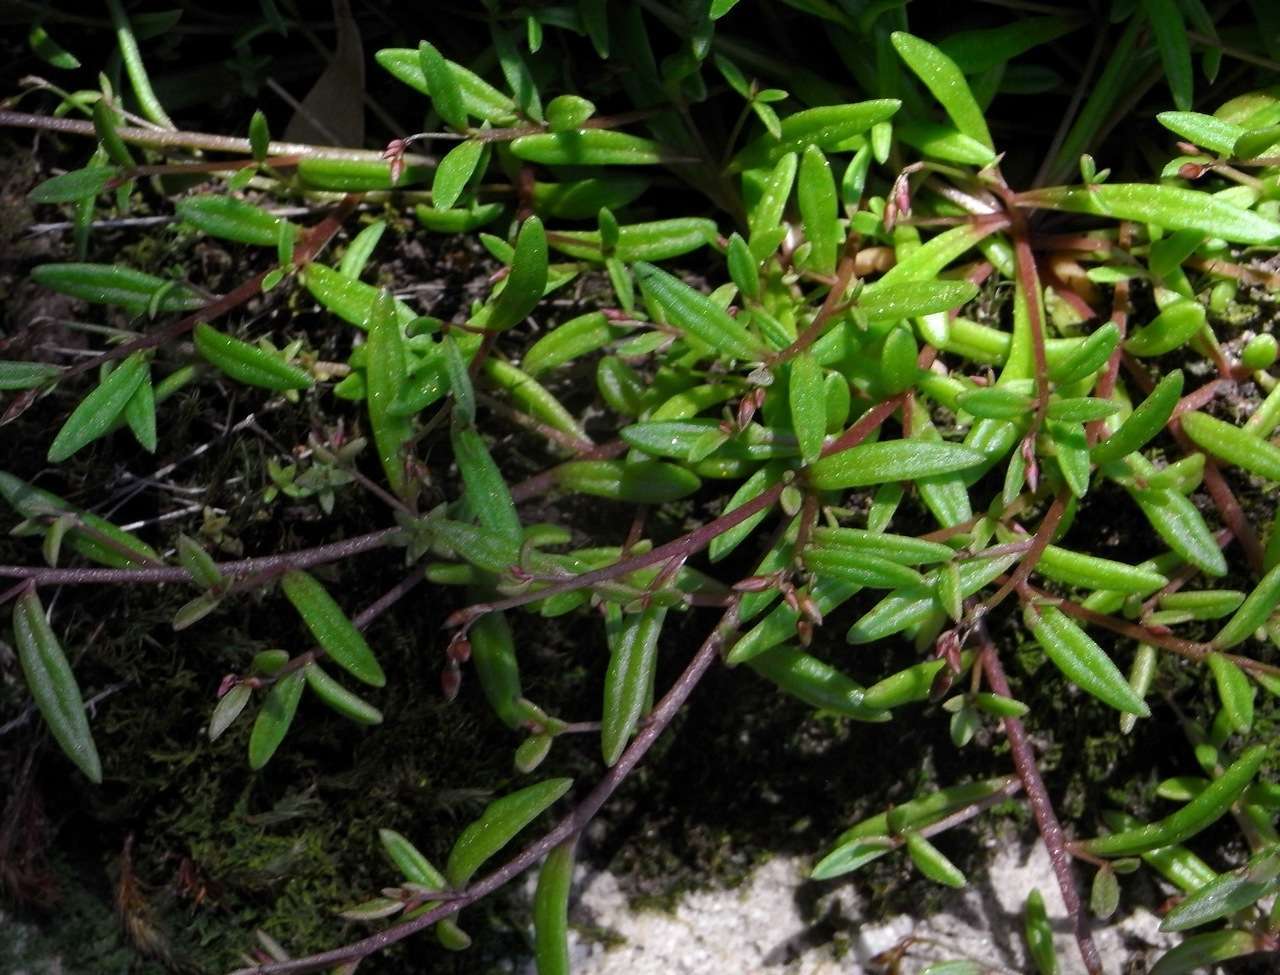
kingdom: Plantae
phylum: Tracheophyta
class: Magnoliopsida
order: Caryophyllales
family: Montiaceae
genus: Rumicastrum
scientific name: Rumicastrum calyptratum
